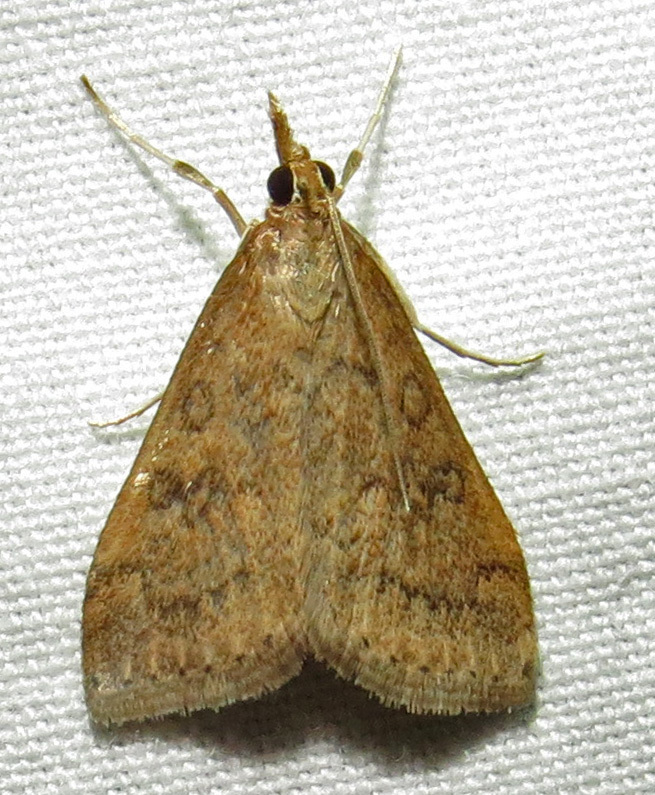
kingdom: Animalia
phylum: Arthropoda
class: Insecta
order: Lepidoptera
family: Crambidae
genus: Udea
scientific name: Udea rubigalis
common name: Celery leaftier moth
